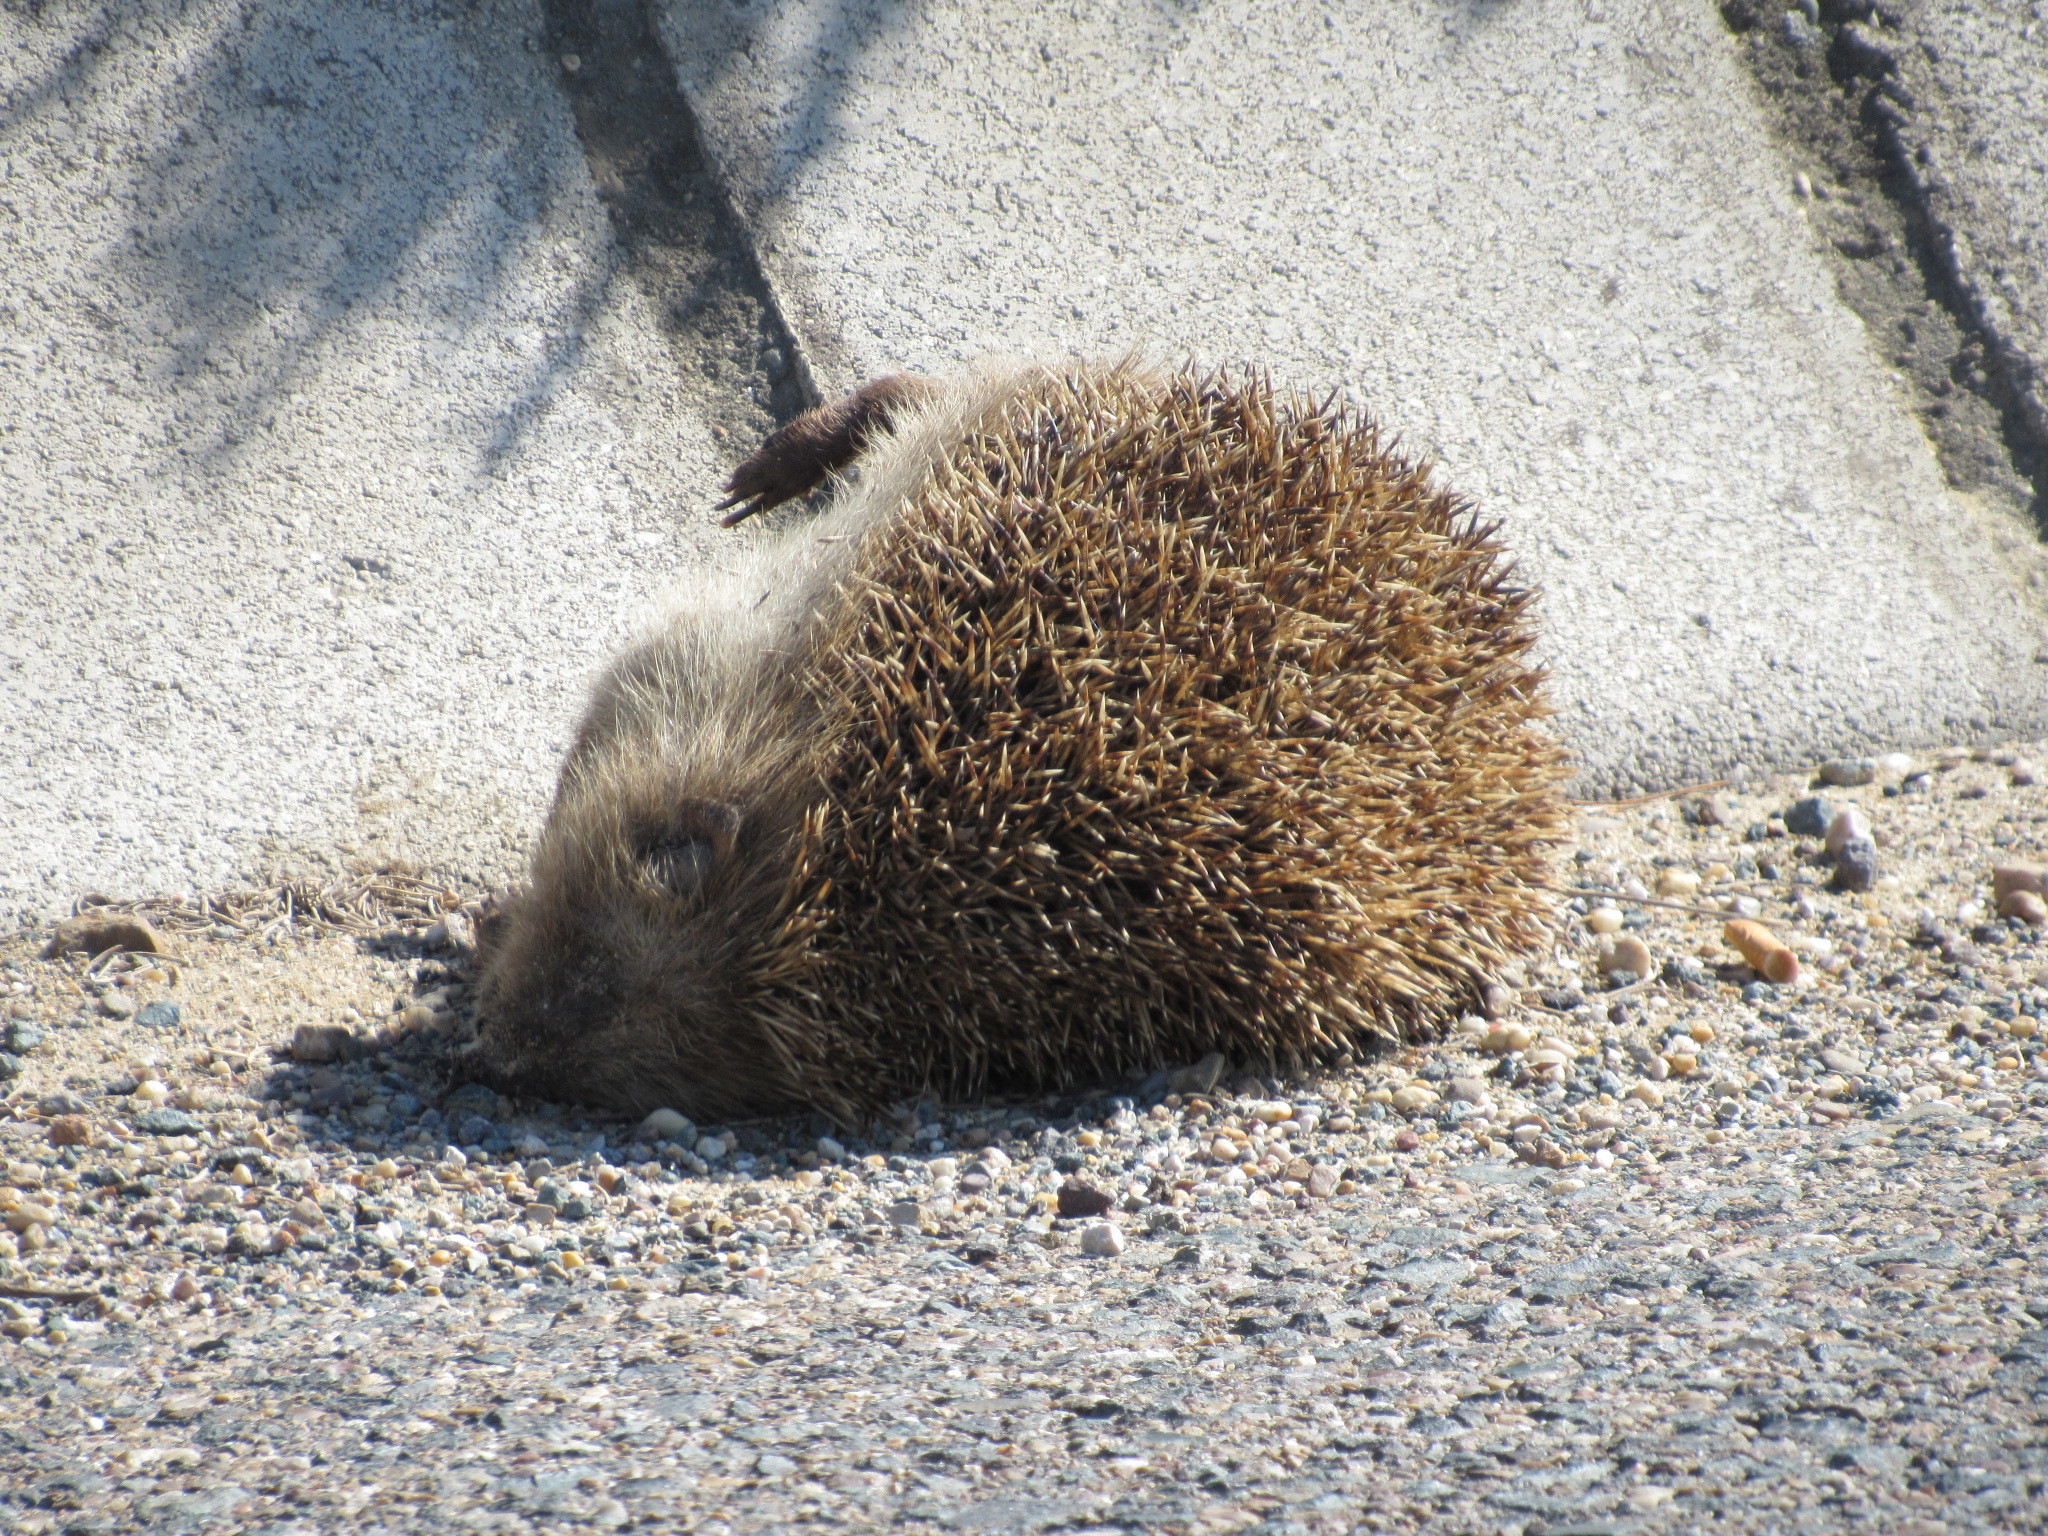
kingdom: Animalia
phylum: Chordata
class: Mammalia
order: Erinaceomorpha
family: Erinaceidae
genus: Erinaceus
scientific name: Erinaceus europaeus
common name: West european hedgehog
